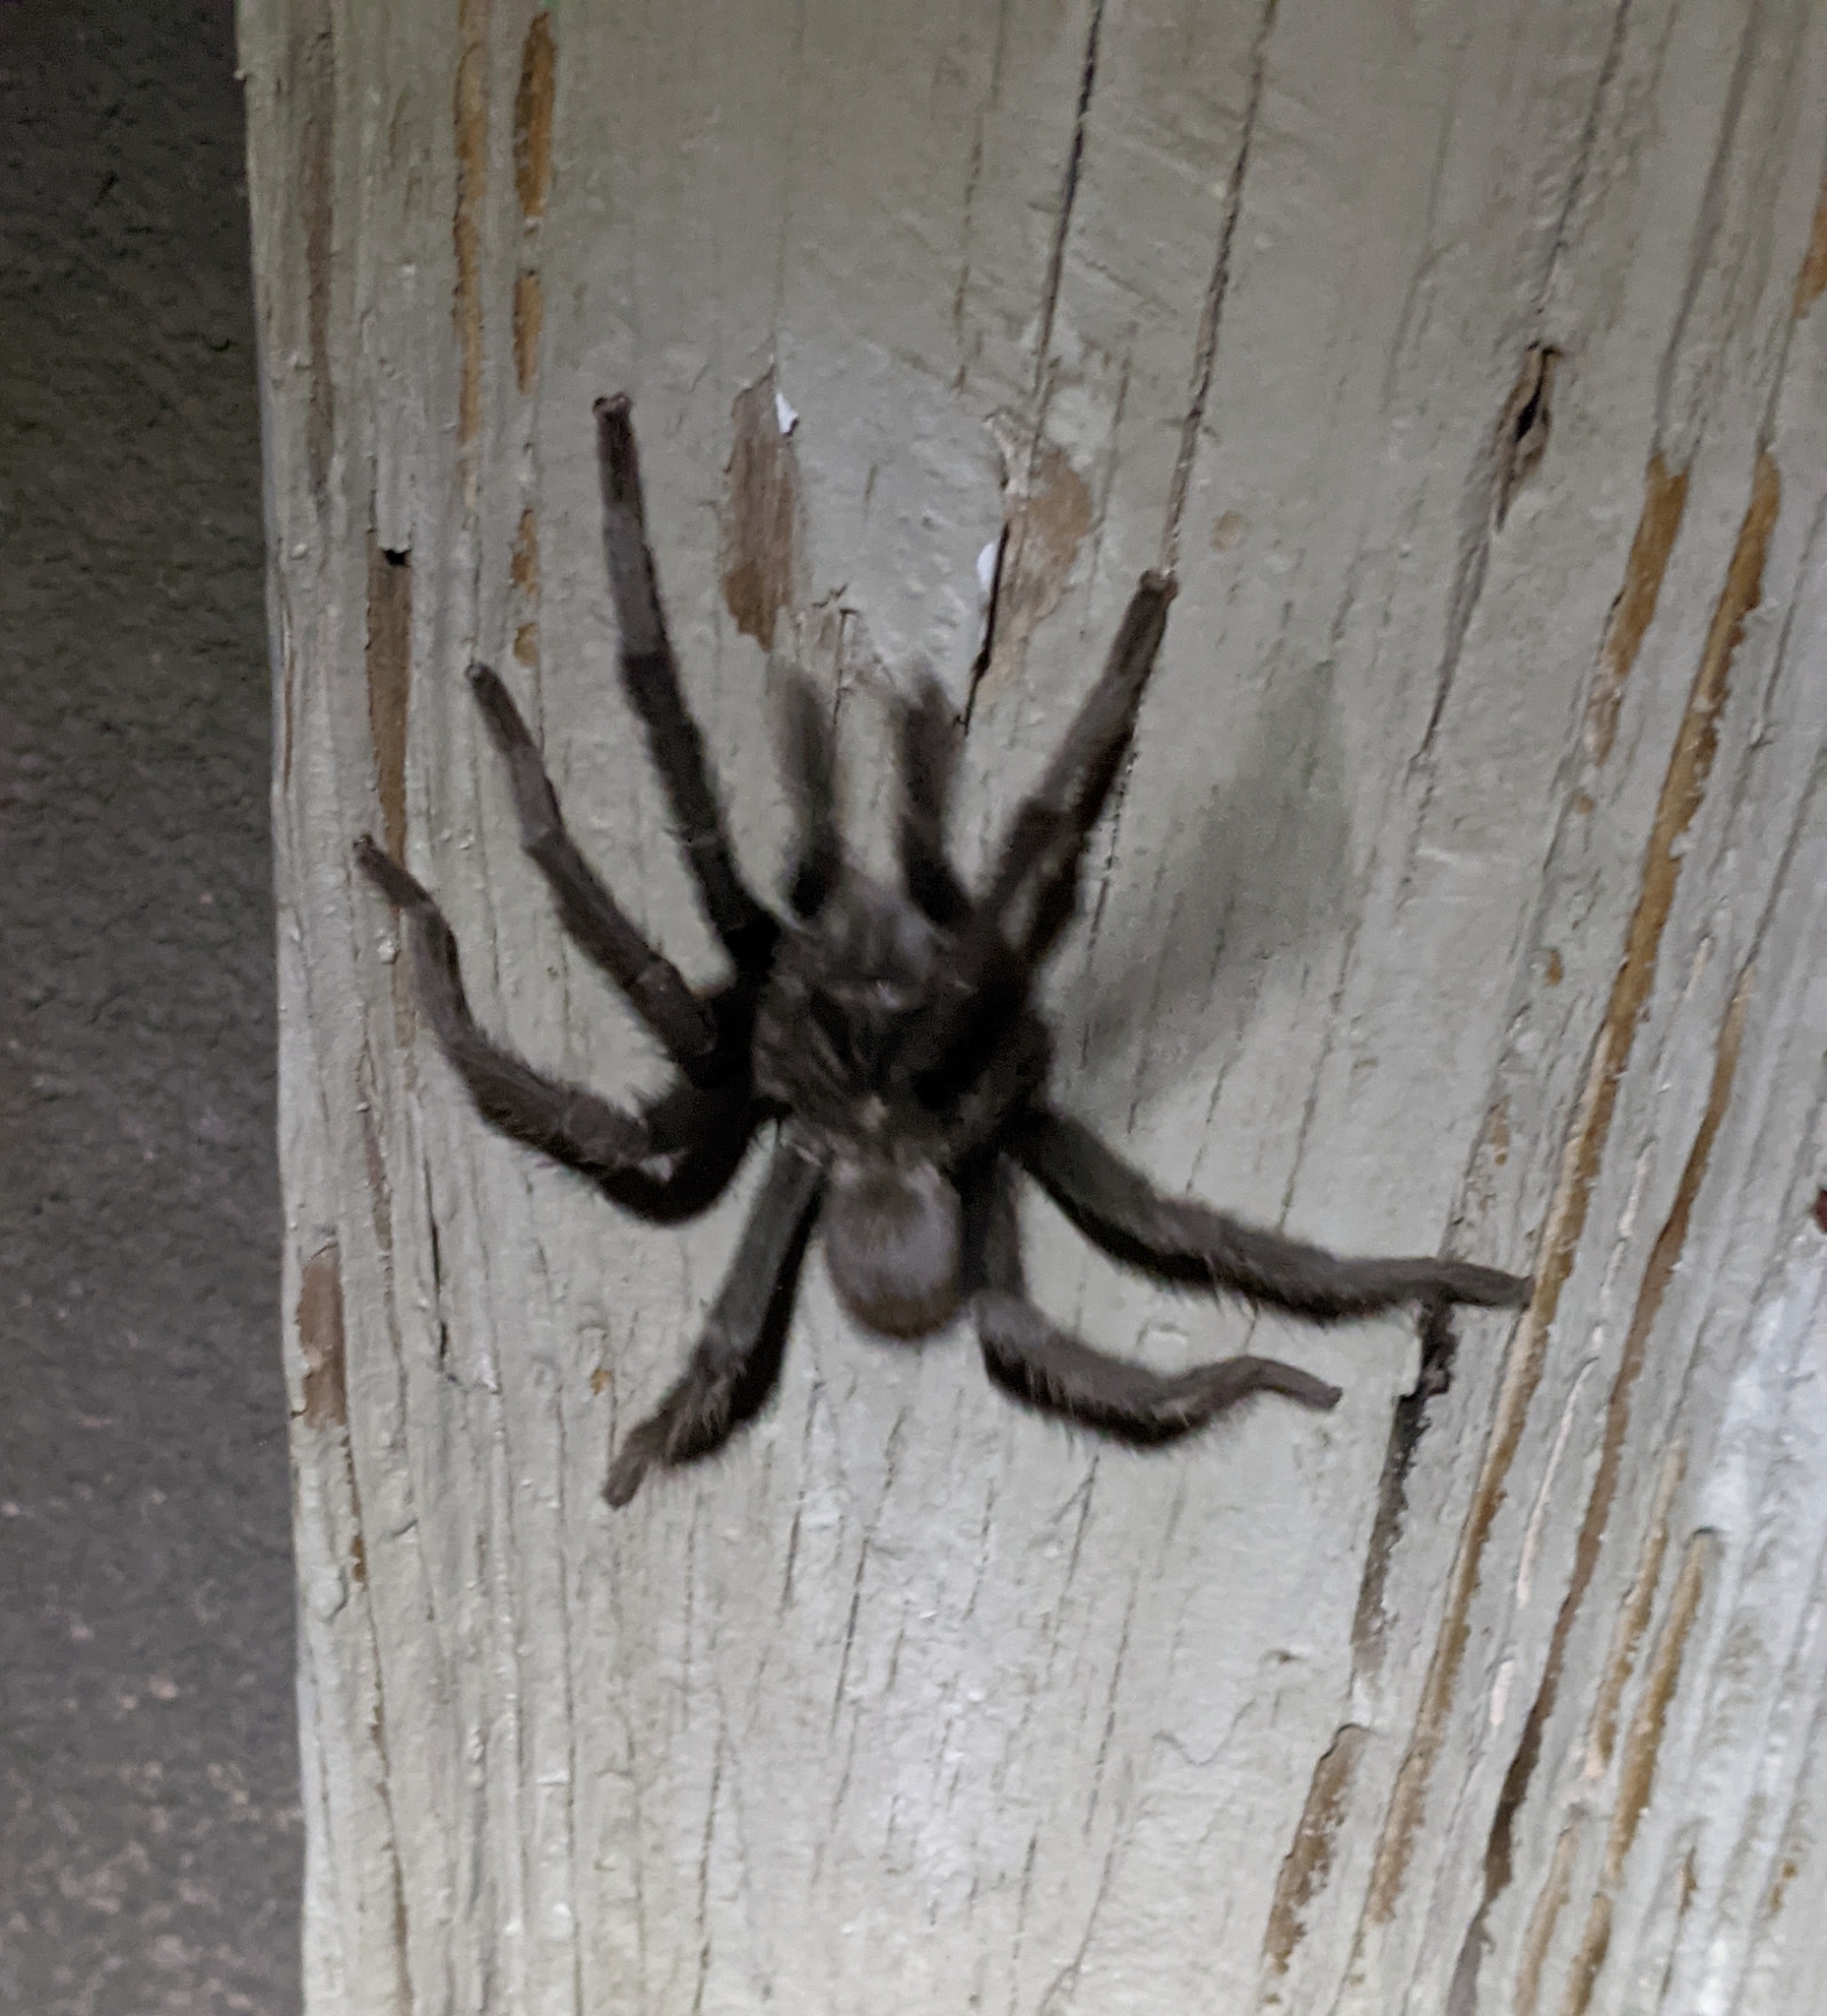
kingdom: Animalia
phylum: Arthropoda
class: Arachnida
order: Araneae
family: Theraphosidae
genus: Aphonopelma
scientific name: Aphonopelma gabeli
